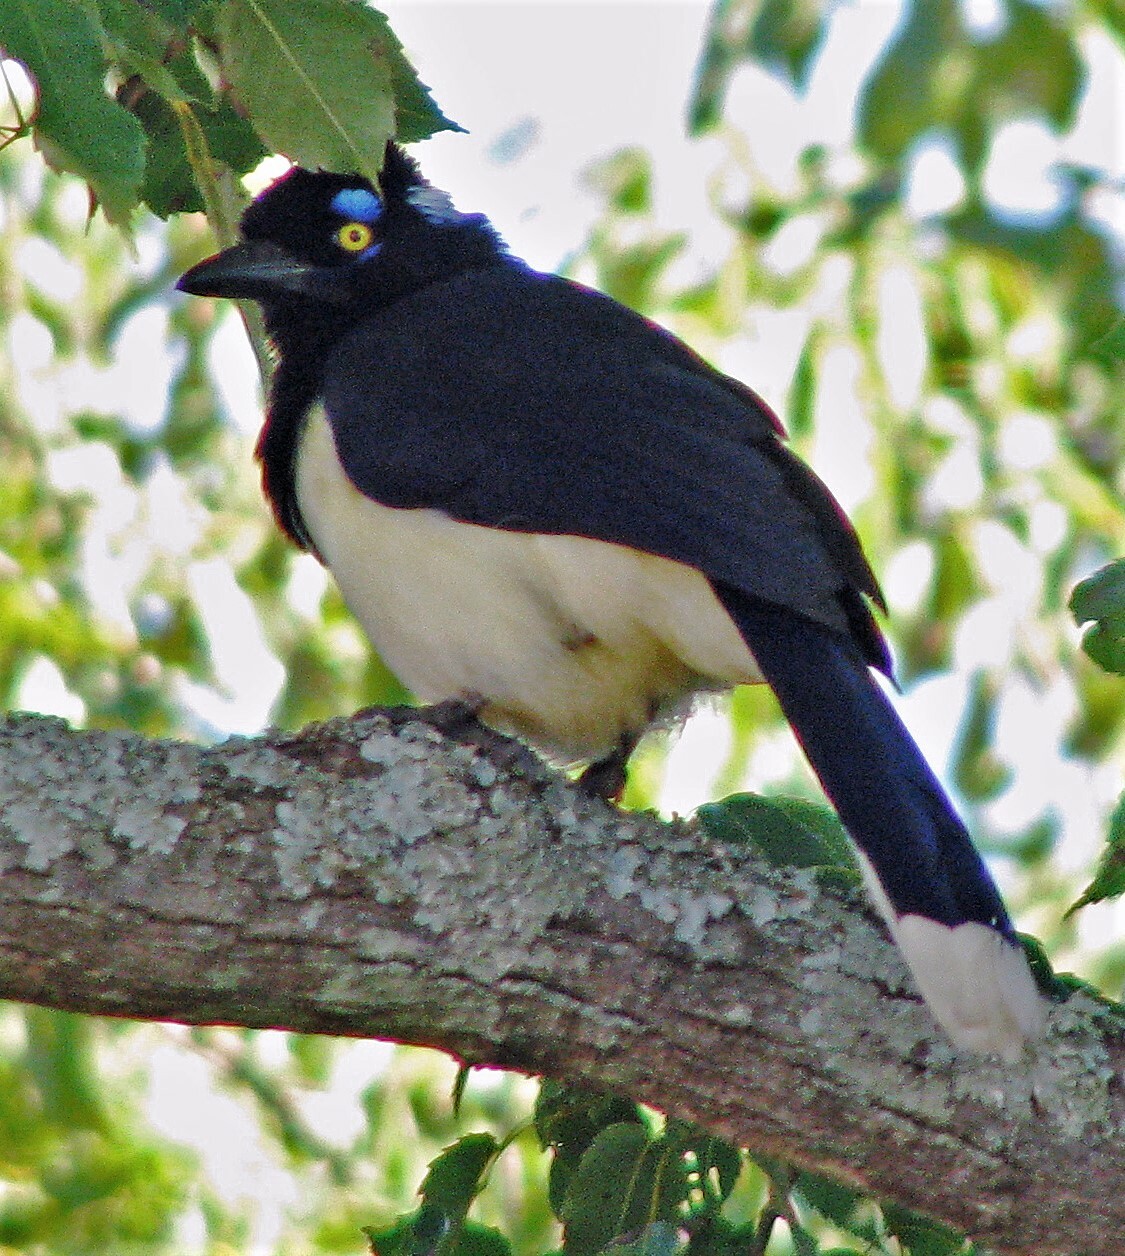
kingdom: Animalia
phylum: Chordata
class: Aves
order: Passeriformes
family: Corvidae
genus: Cyanocorax
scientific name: Cyanocorax chrysops
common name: Plush-crested jay
